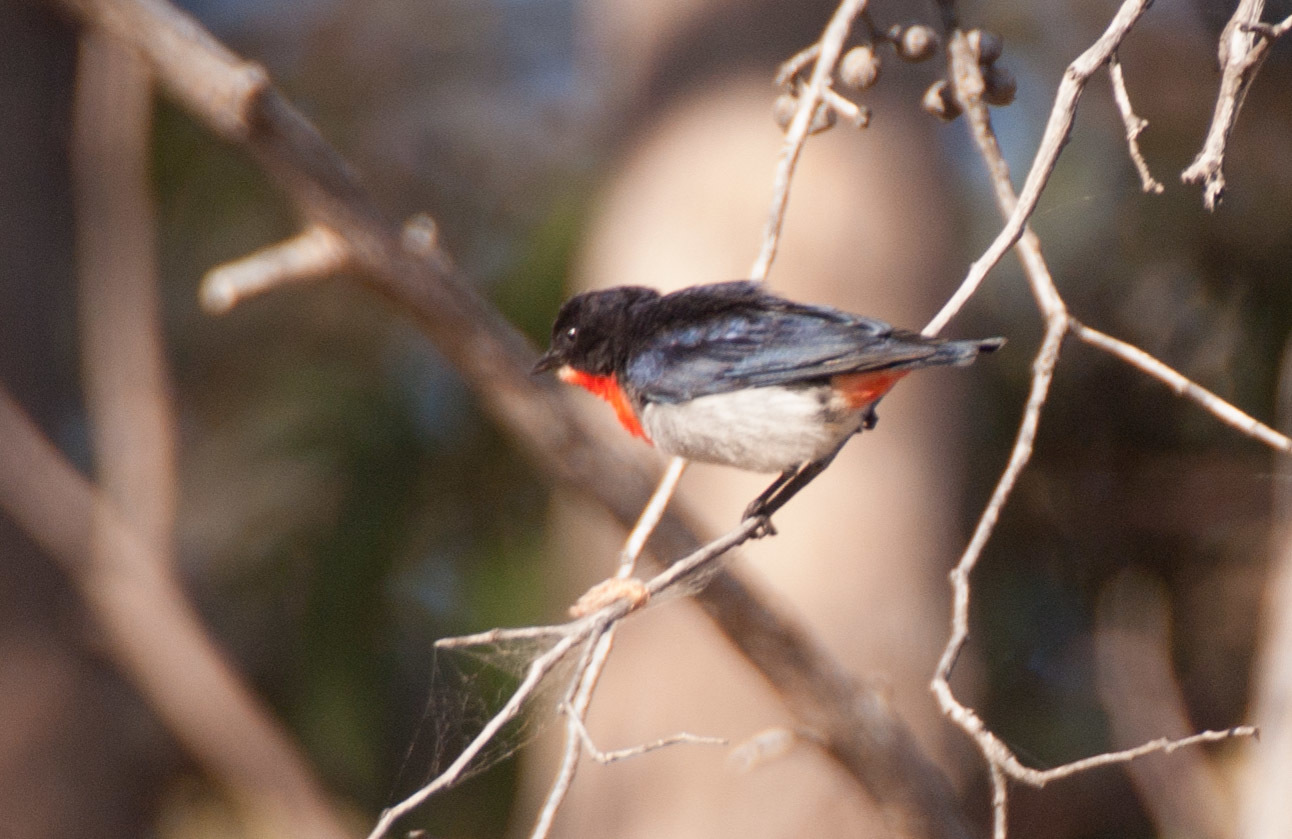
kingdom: Animalia
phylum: Chordata
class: Aves
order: Passeriformes
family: Dicaeidae
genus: Dicaeum
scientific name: Dicaeum hirundinaceum
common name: Mistletoebird
